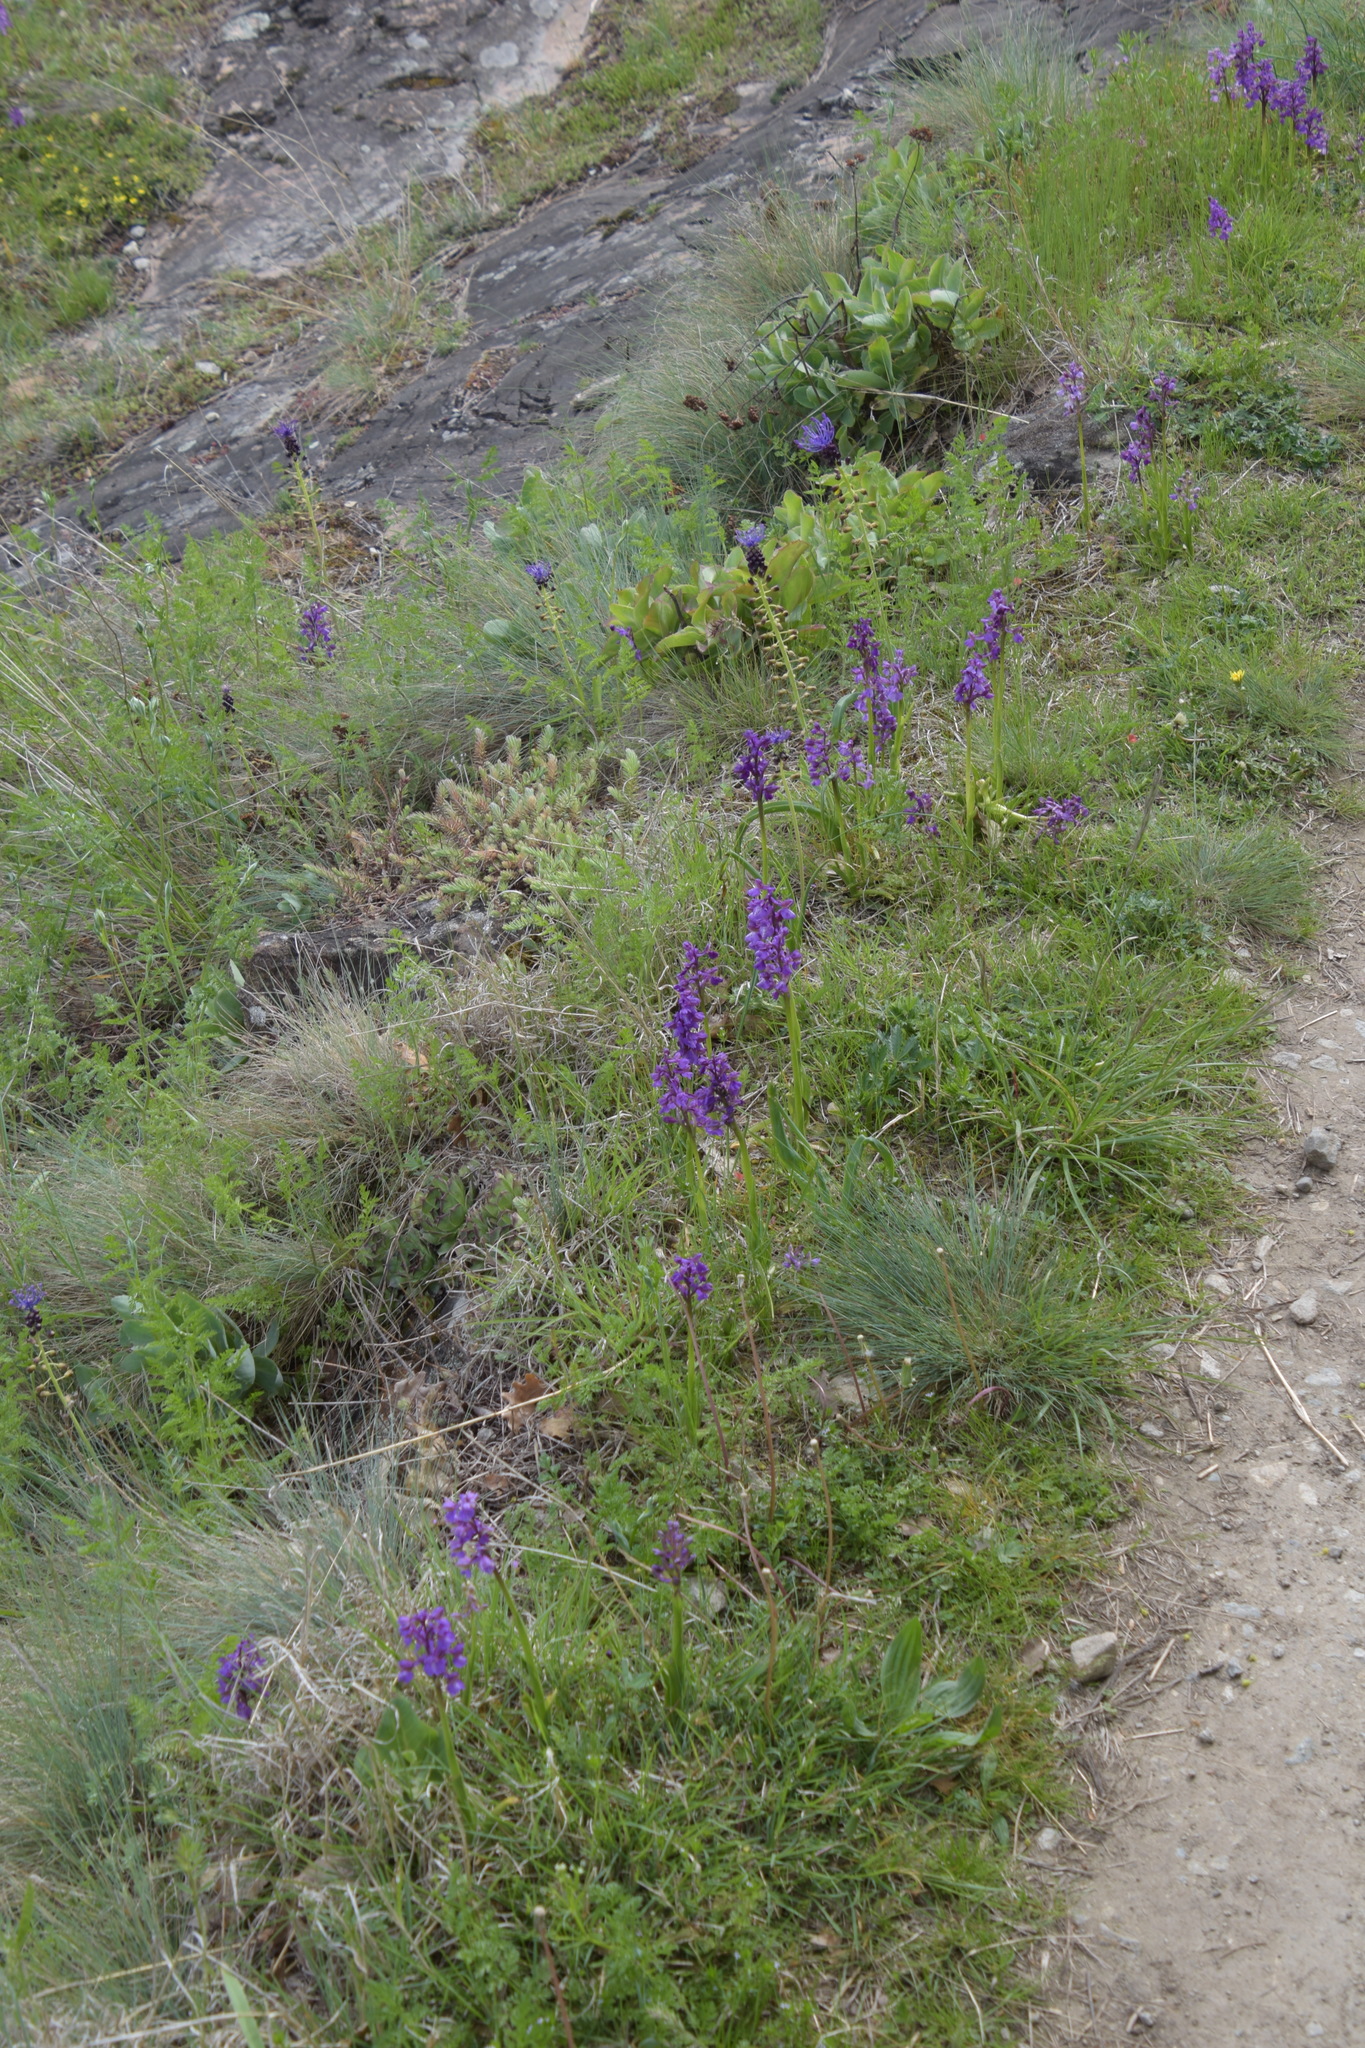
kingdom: Plantae
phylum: Tracheophyta
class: Liliopsida
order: Asparagales
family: Orchidaceae
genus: Anacamptis
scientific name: Anacamptis morio
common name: Green-winged orchid
